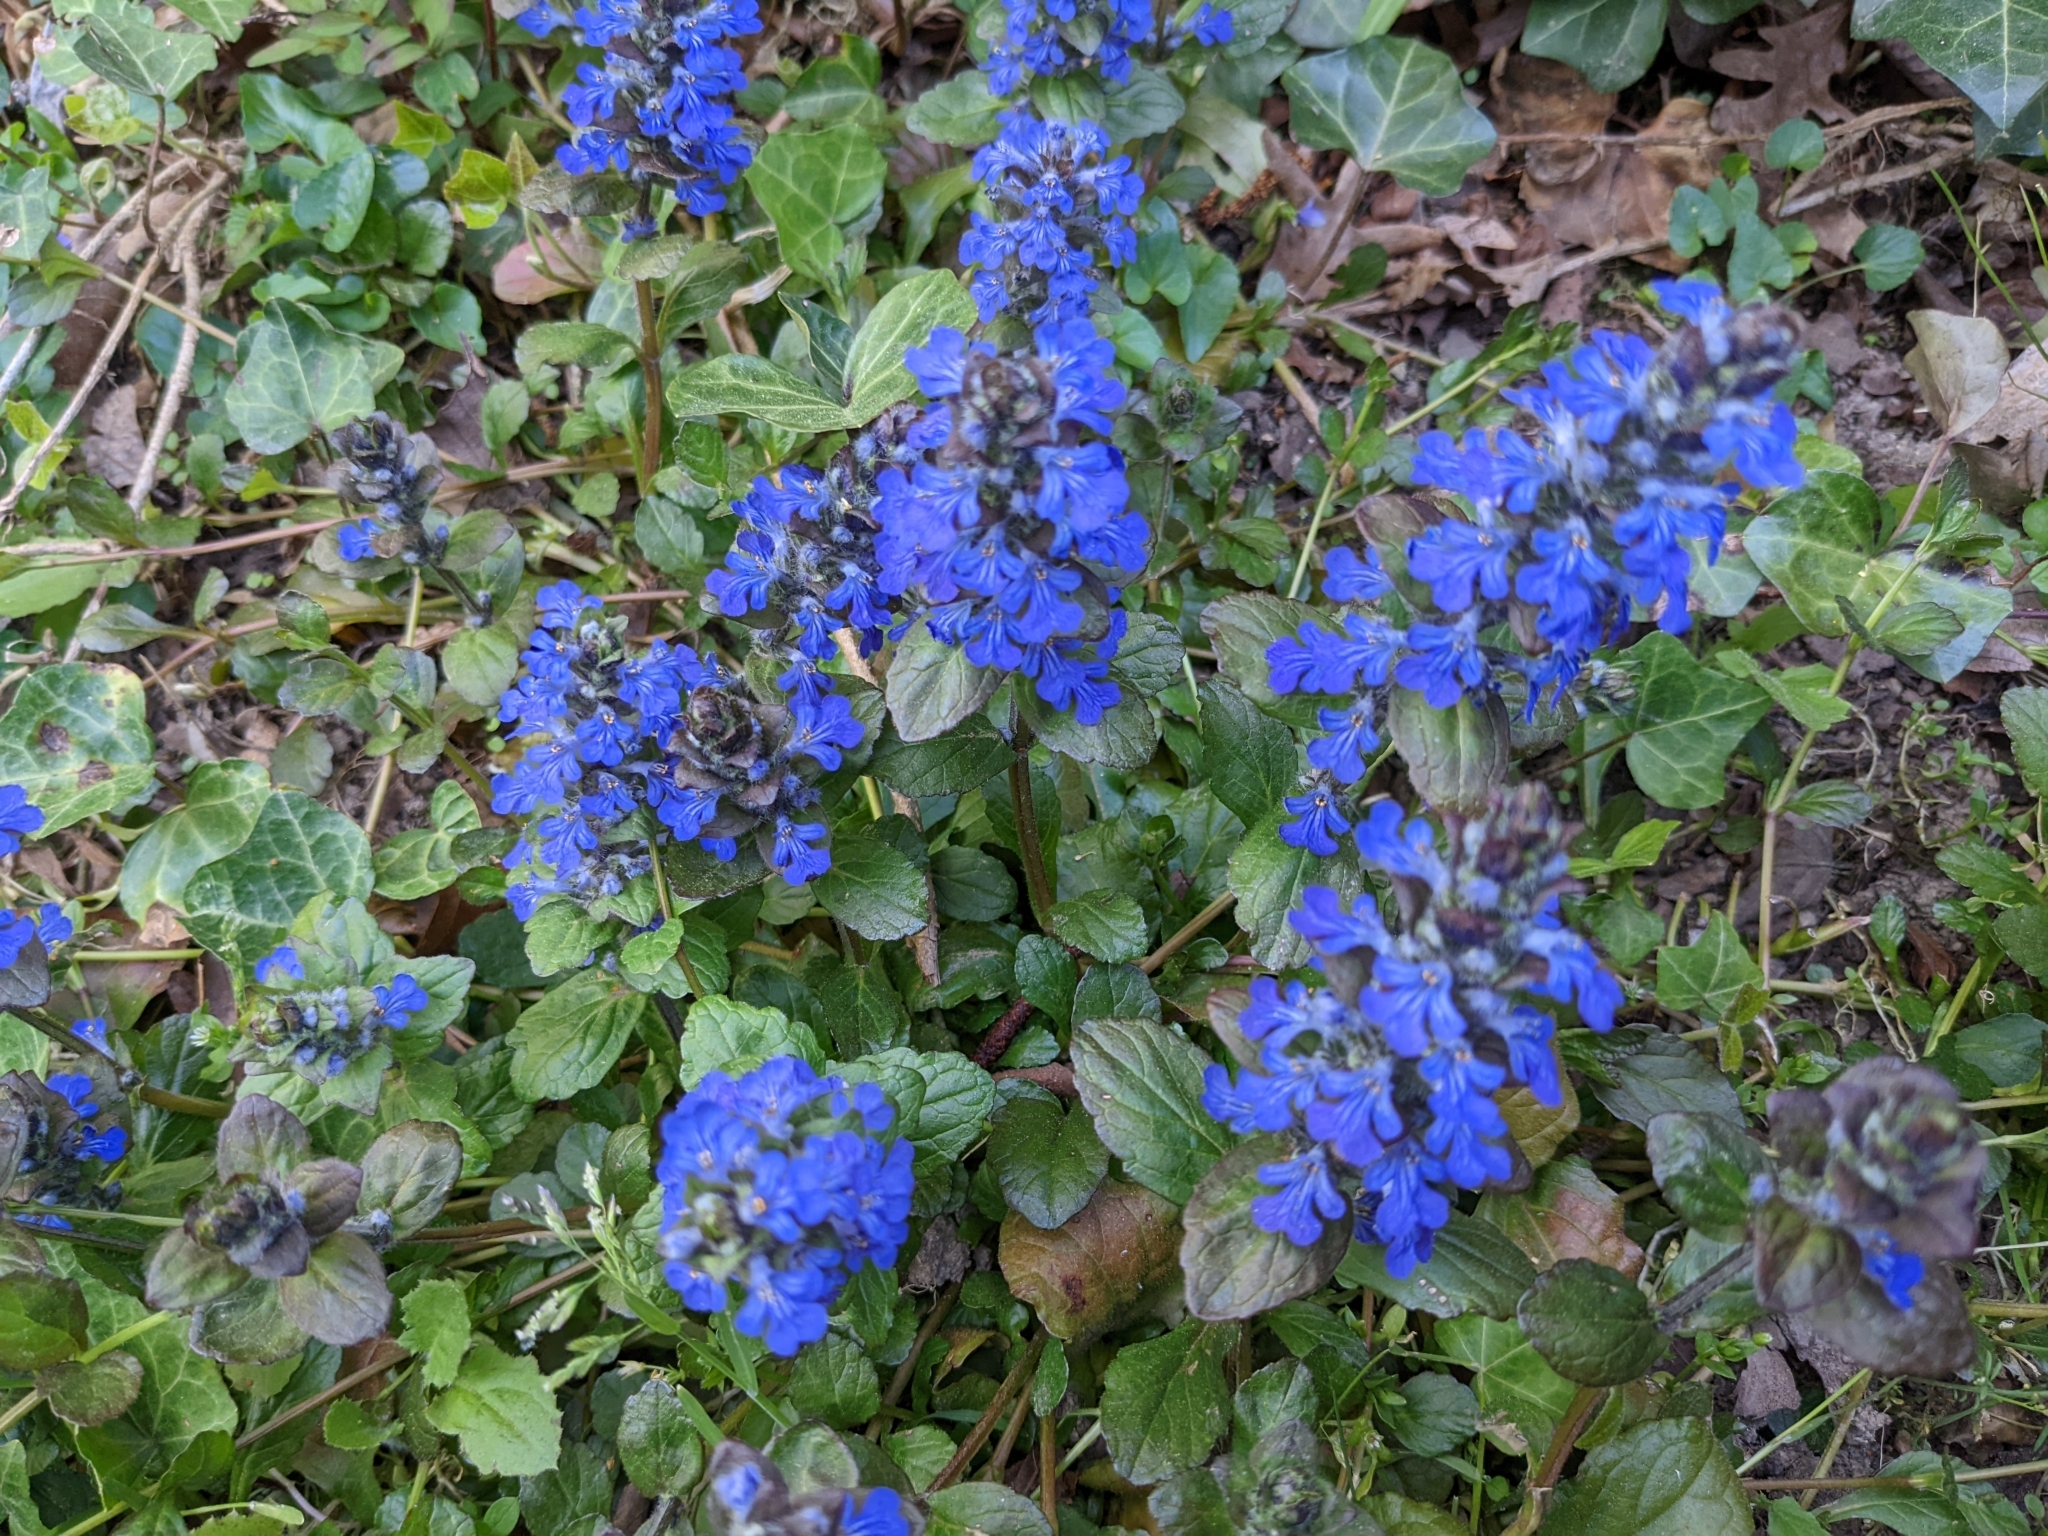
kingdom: Plantae
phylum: Tracheophyta
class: Magnoliopsida
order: Lamiales
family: Lamiaceae
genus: Ajuga
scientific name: Ajuga reptans
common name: Bugle
